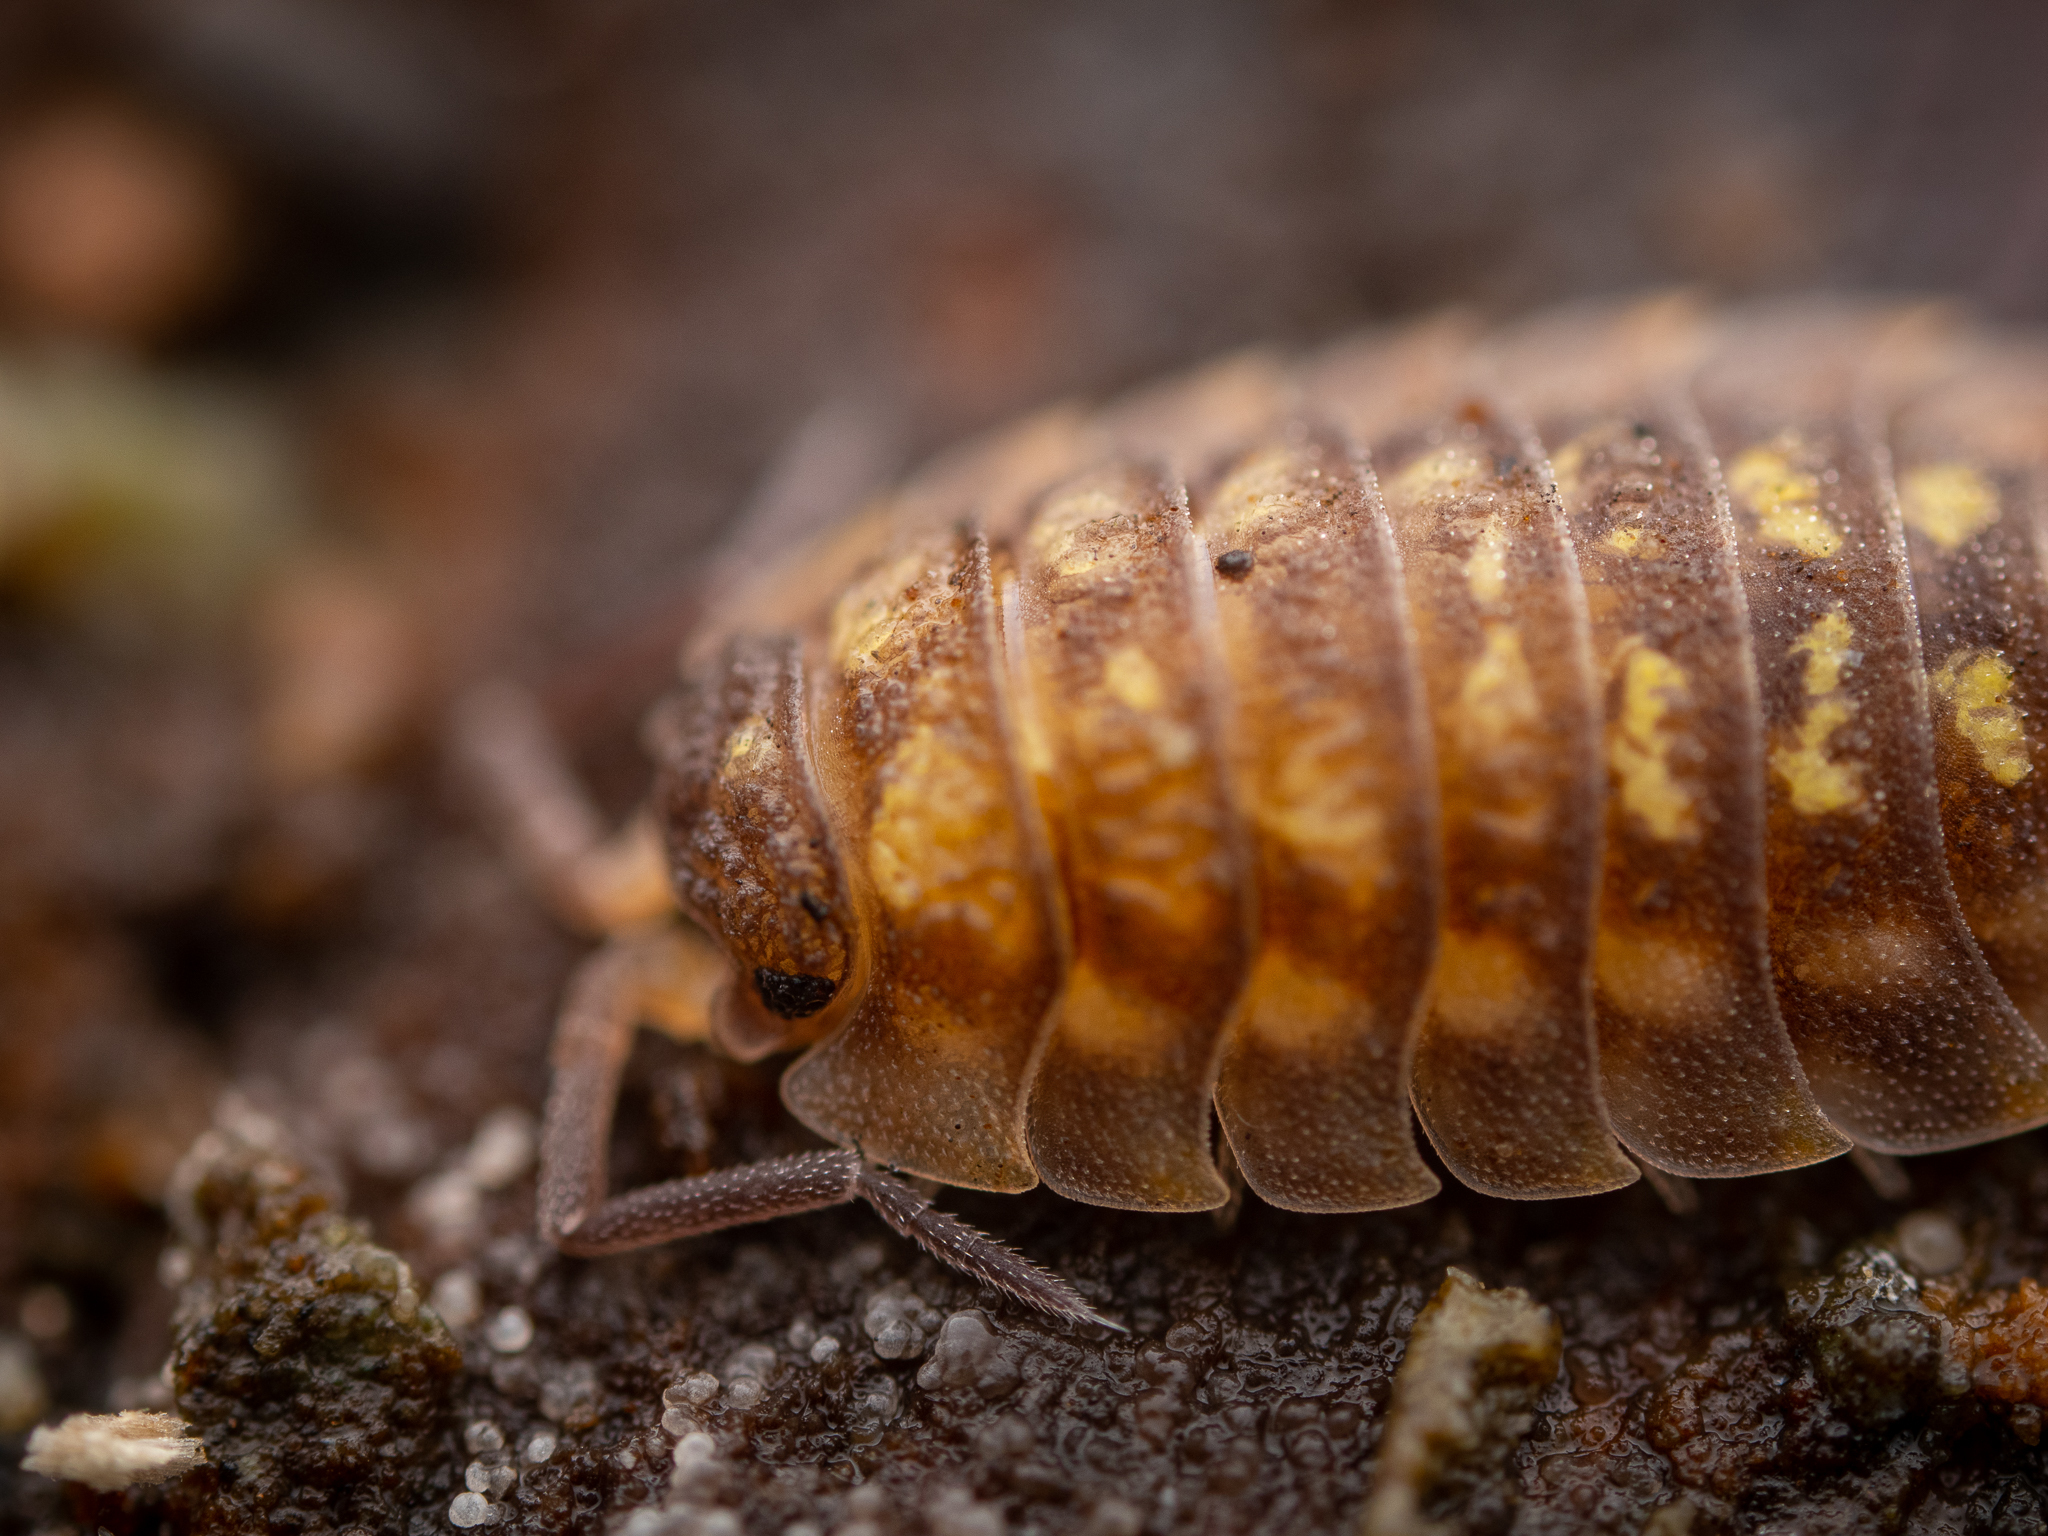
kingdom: Animalia
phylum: Arthropoda
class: Malacostraca
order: Isopoda
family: Oniscidae
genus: Oniscus
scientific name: Oniscus asellus
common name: Common shiny woodlouse
